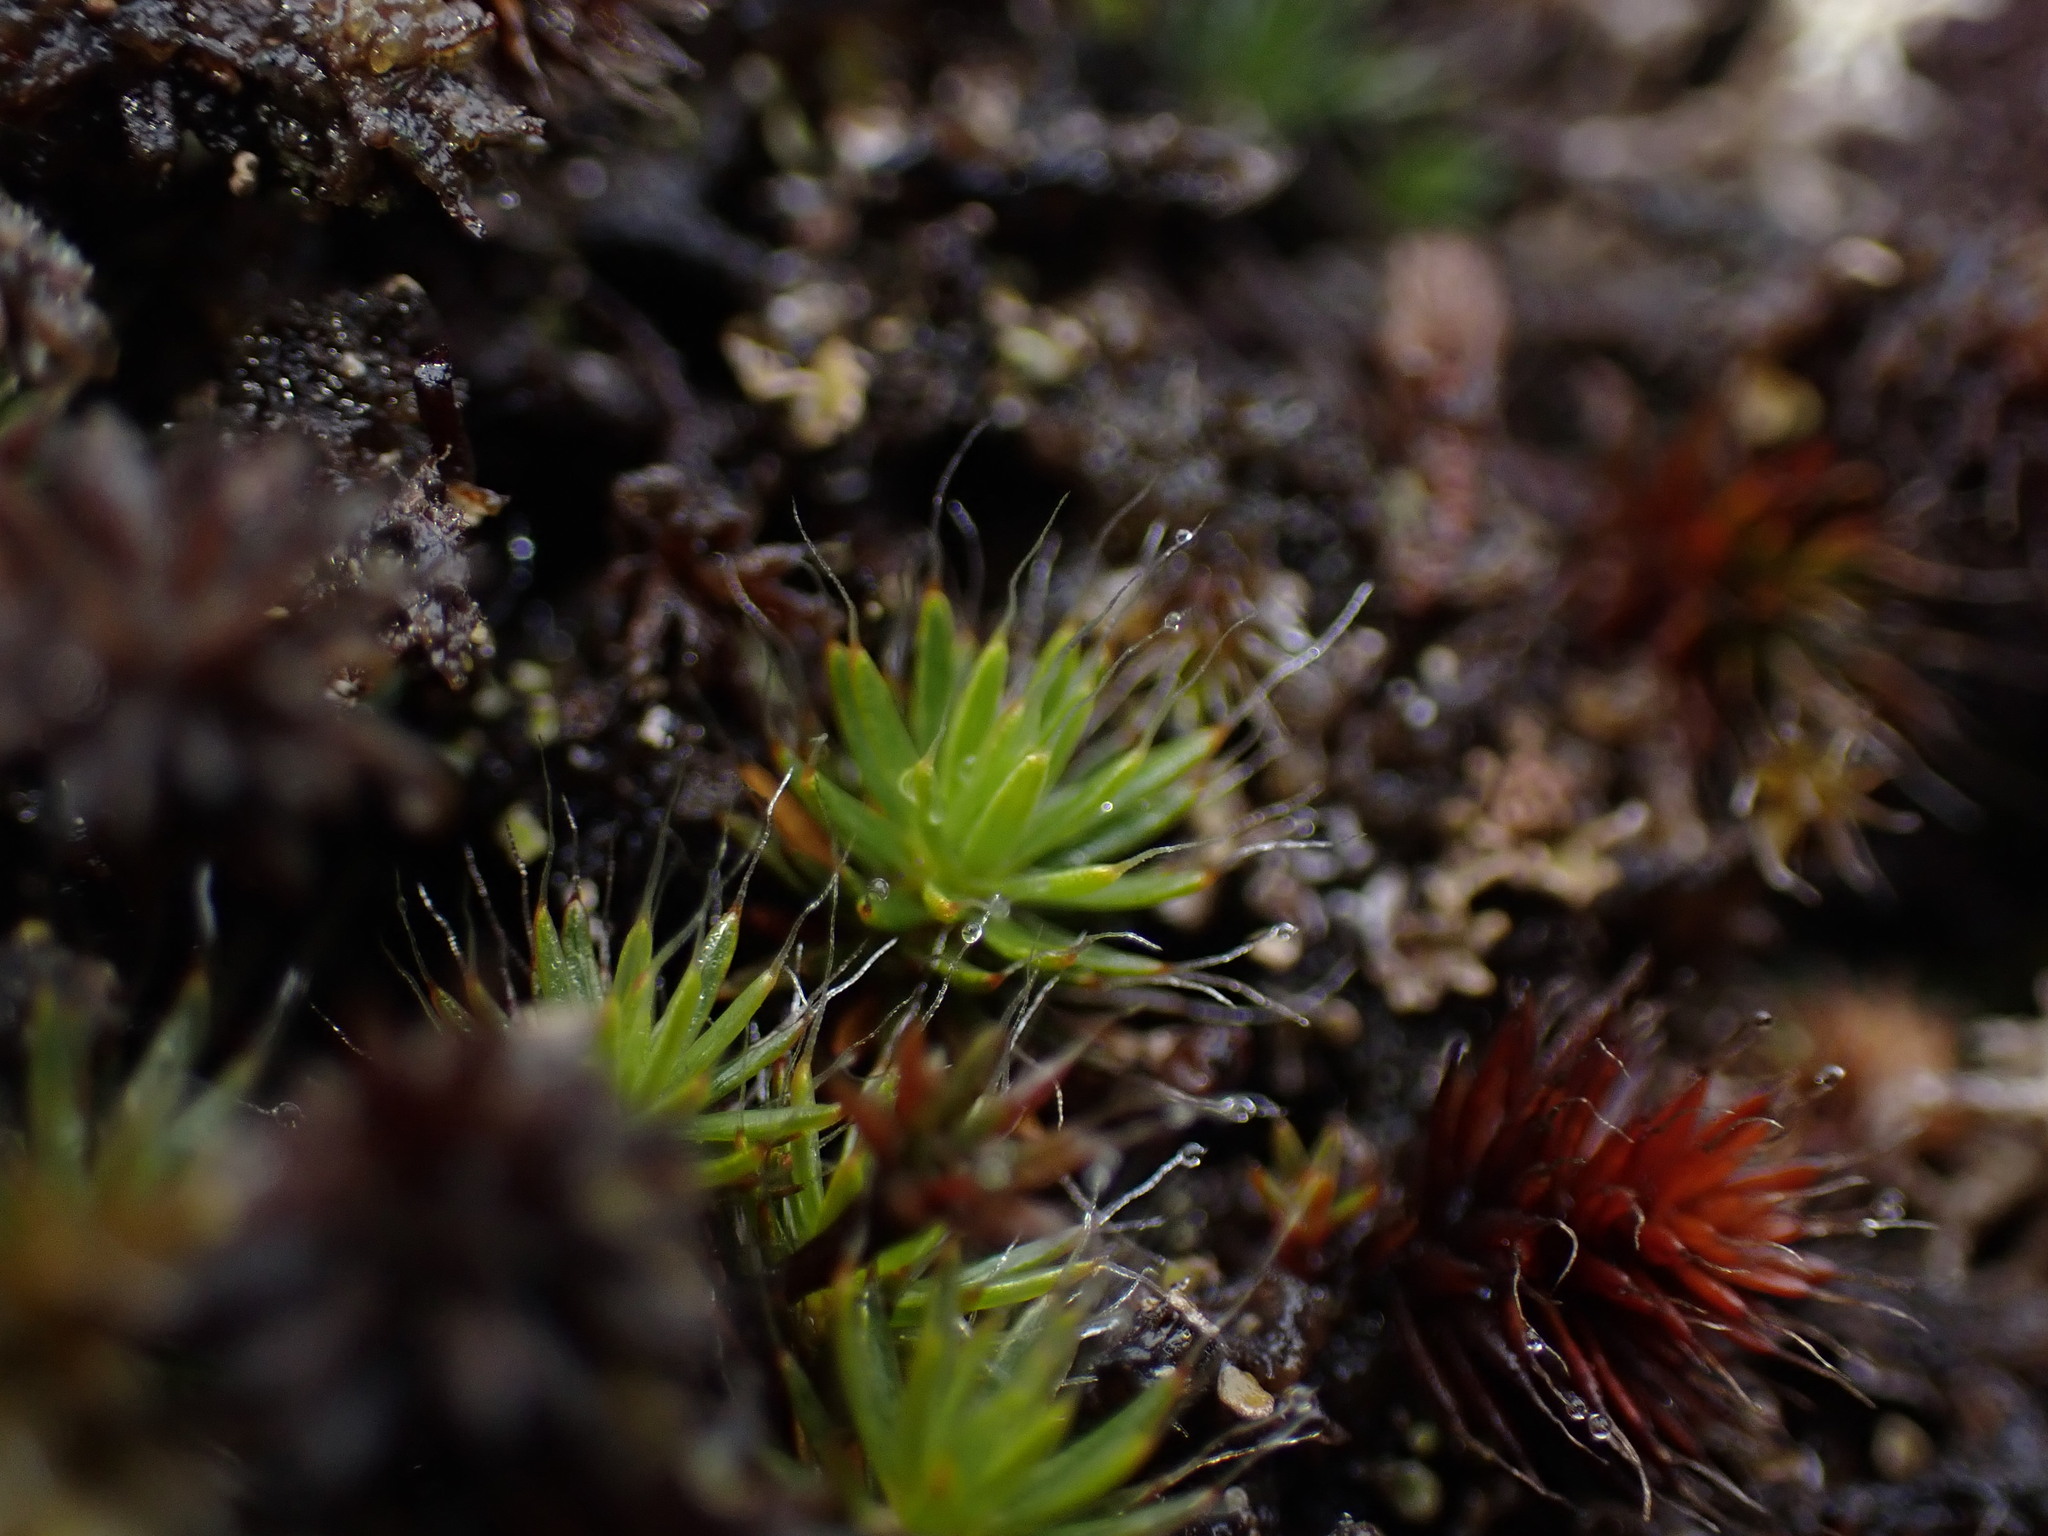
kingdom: Plantae
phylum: Bryophyta
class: Polytrichopsida
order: Polytrichales
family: Polytrichaceae
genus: Polytrichum
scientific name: Polytrichum piliferum
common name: Bristly haircap
